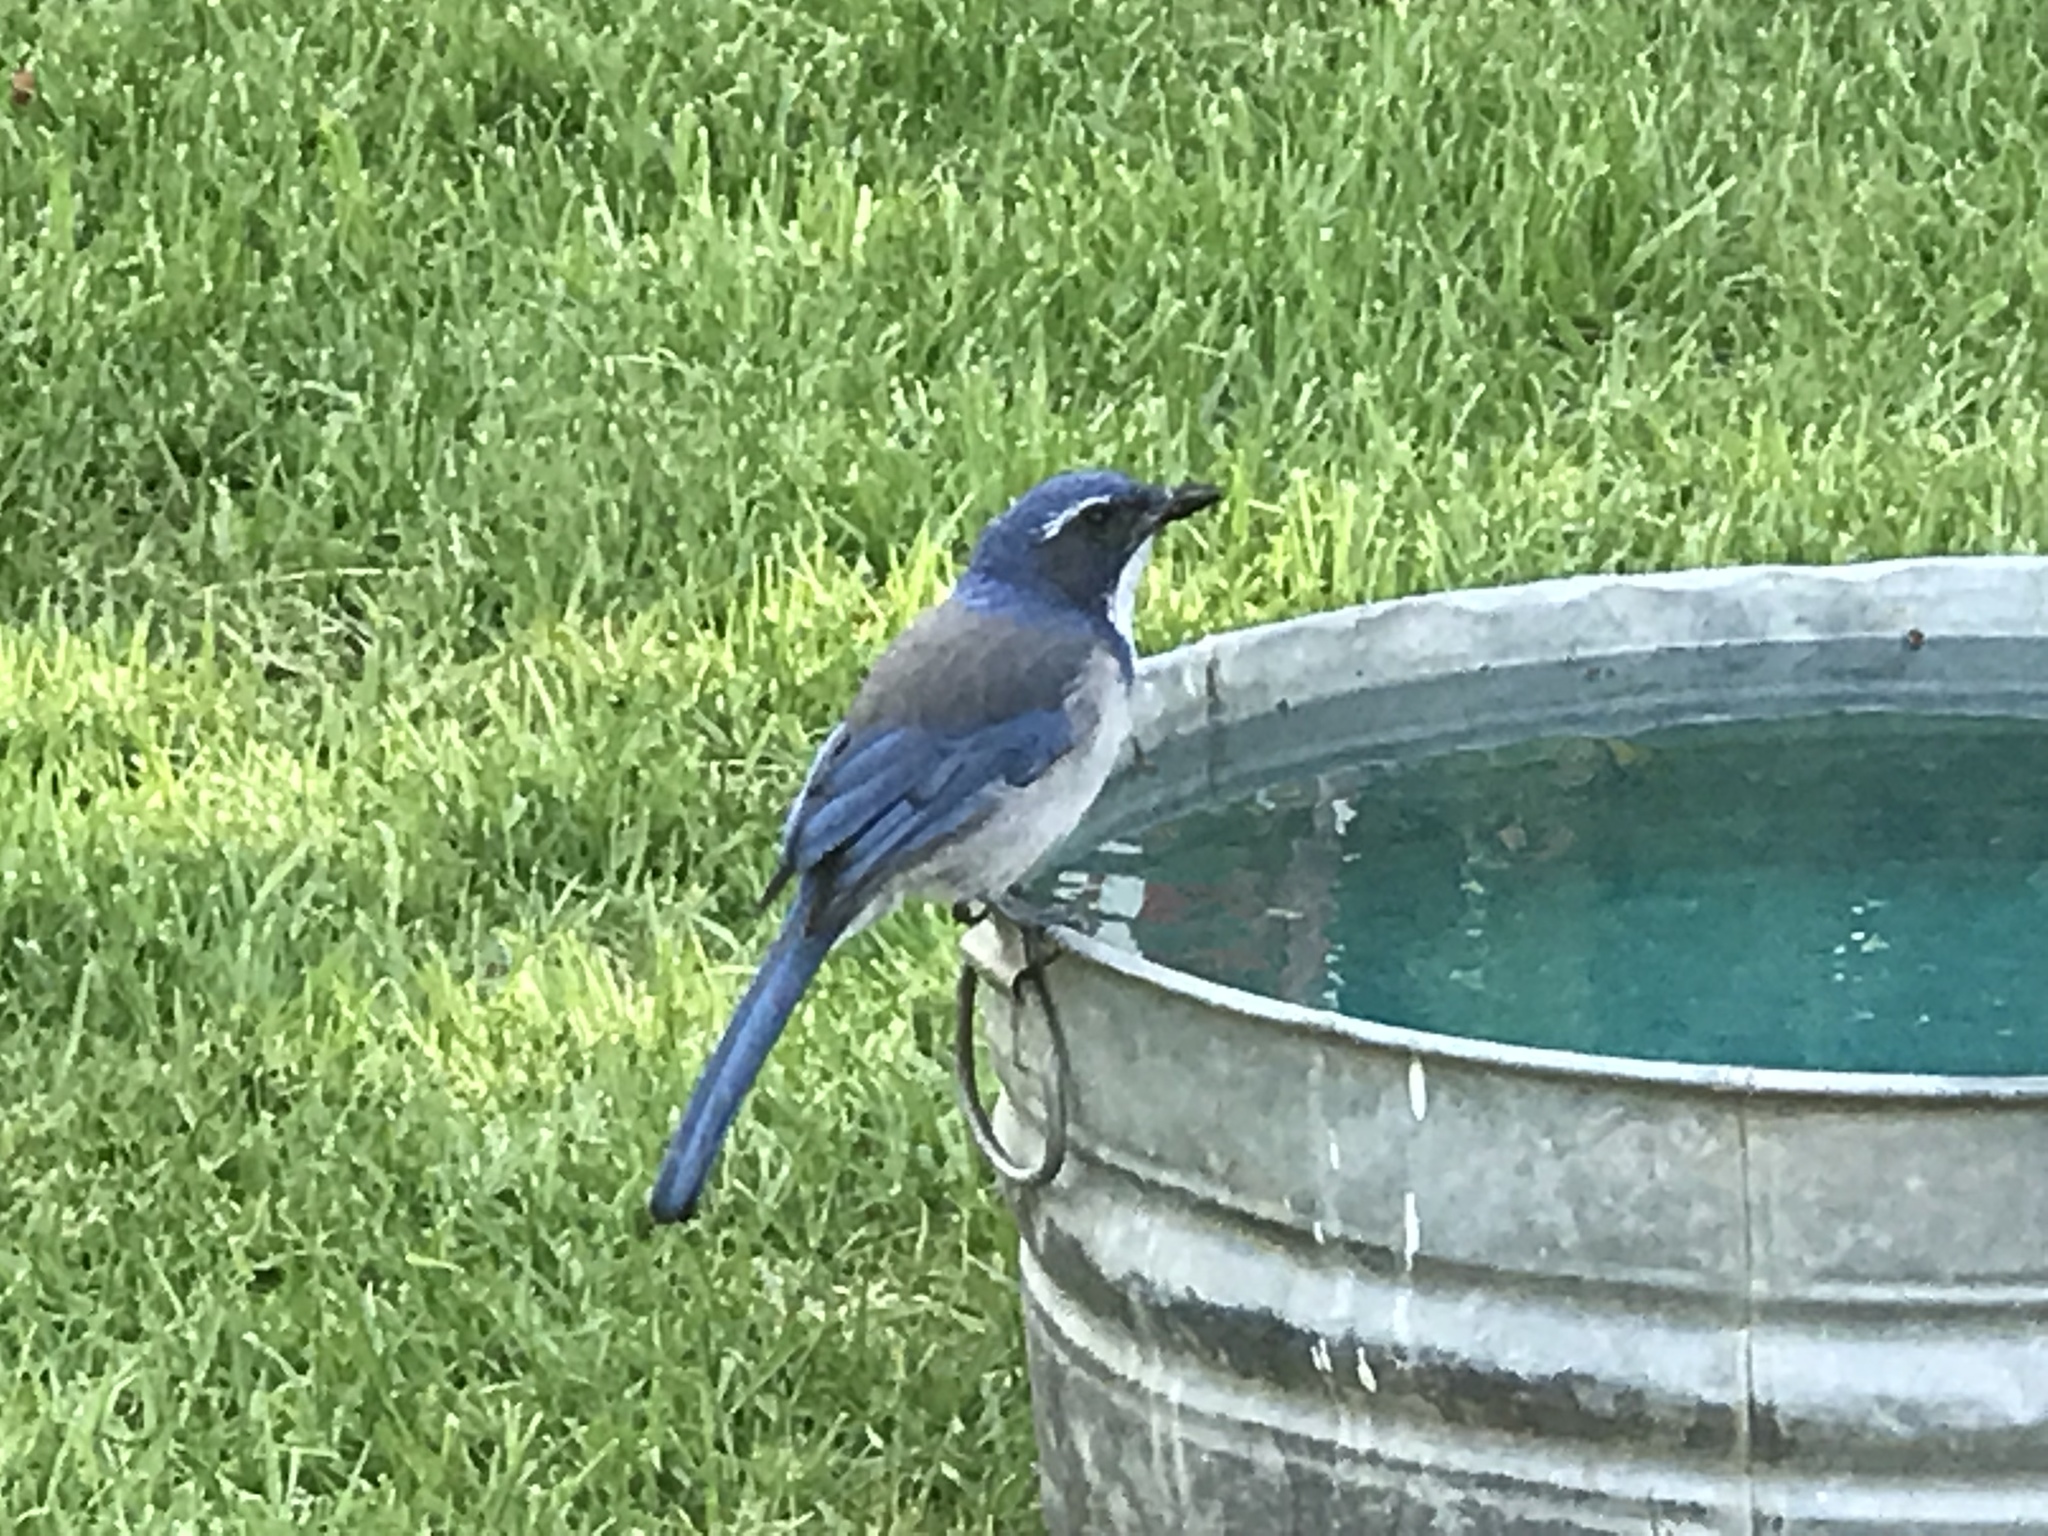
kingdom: Animalia
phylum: Chordata
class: Aves
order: Passeriformes
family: Corvidae
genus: Aphelocoma
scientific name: Aphelocoma californica
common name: California scrub-jay
